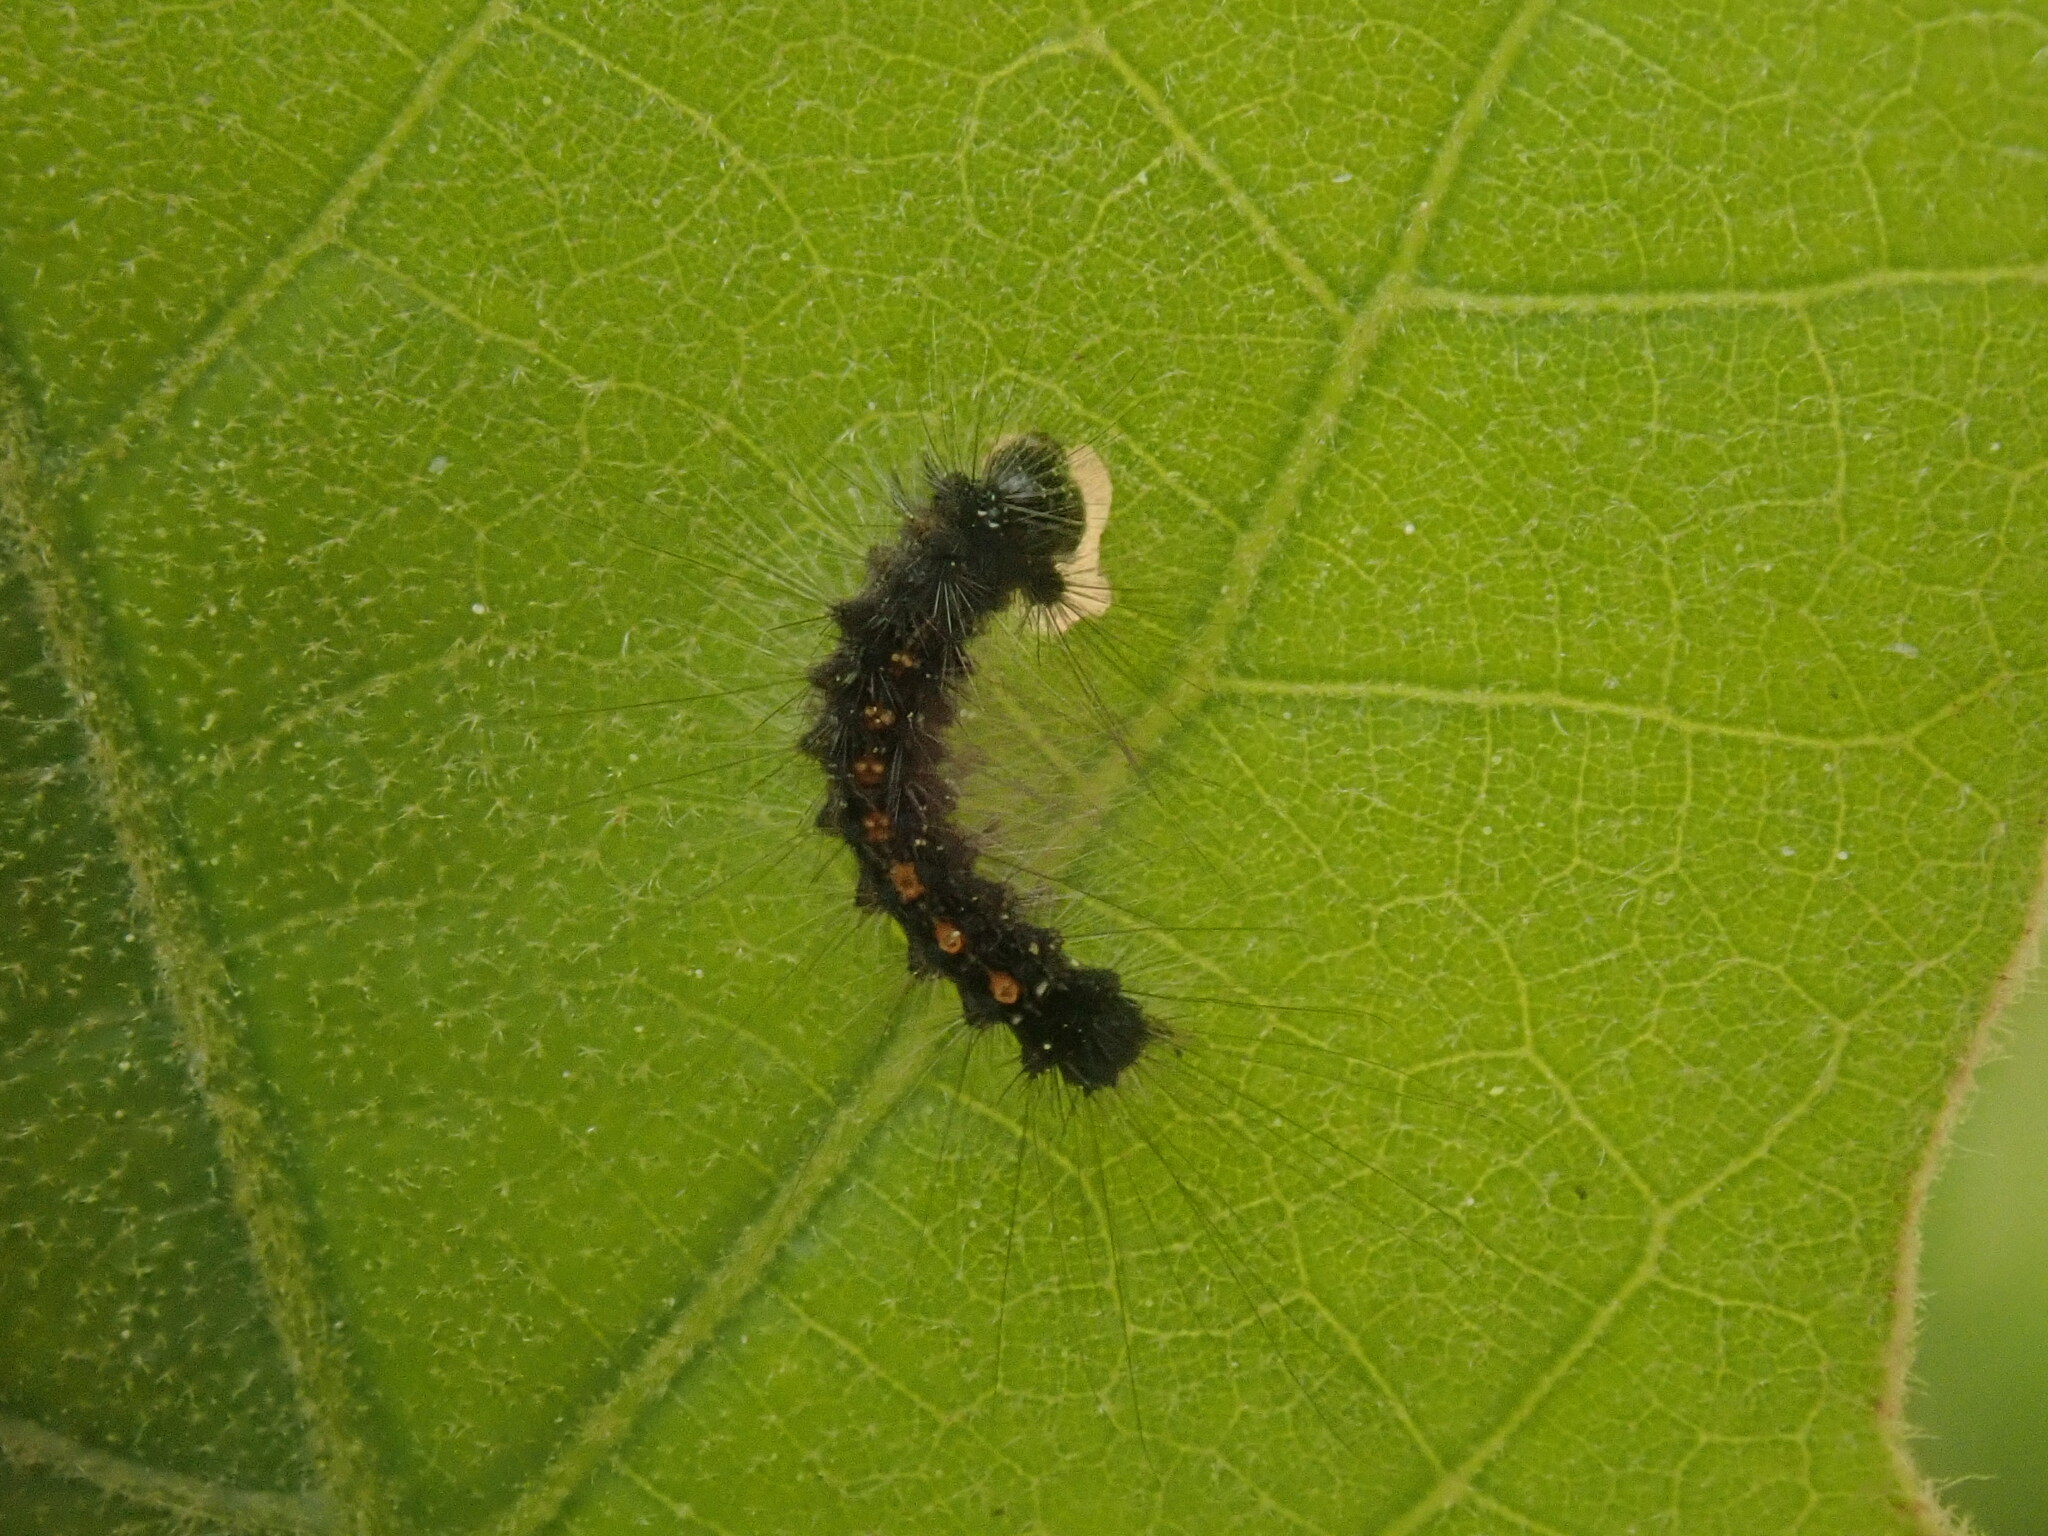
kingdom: Animalia
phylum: Arthropoda
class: Insecta
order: Lepidoptera
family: Erebidae
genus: Lymantria
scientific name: Lymantria dispar
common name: Gypsy moth
